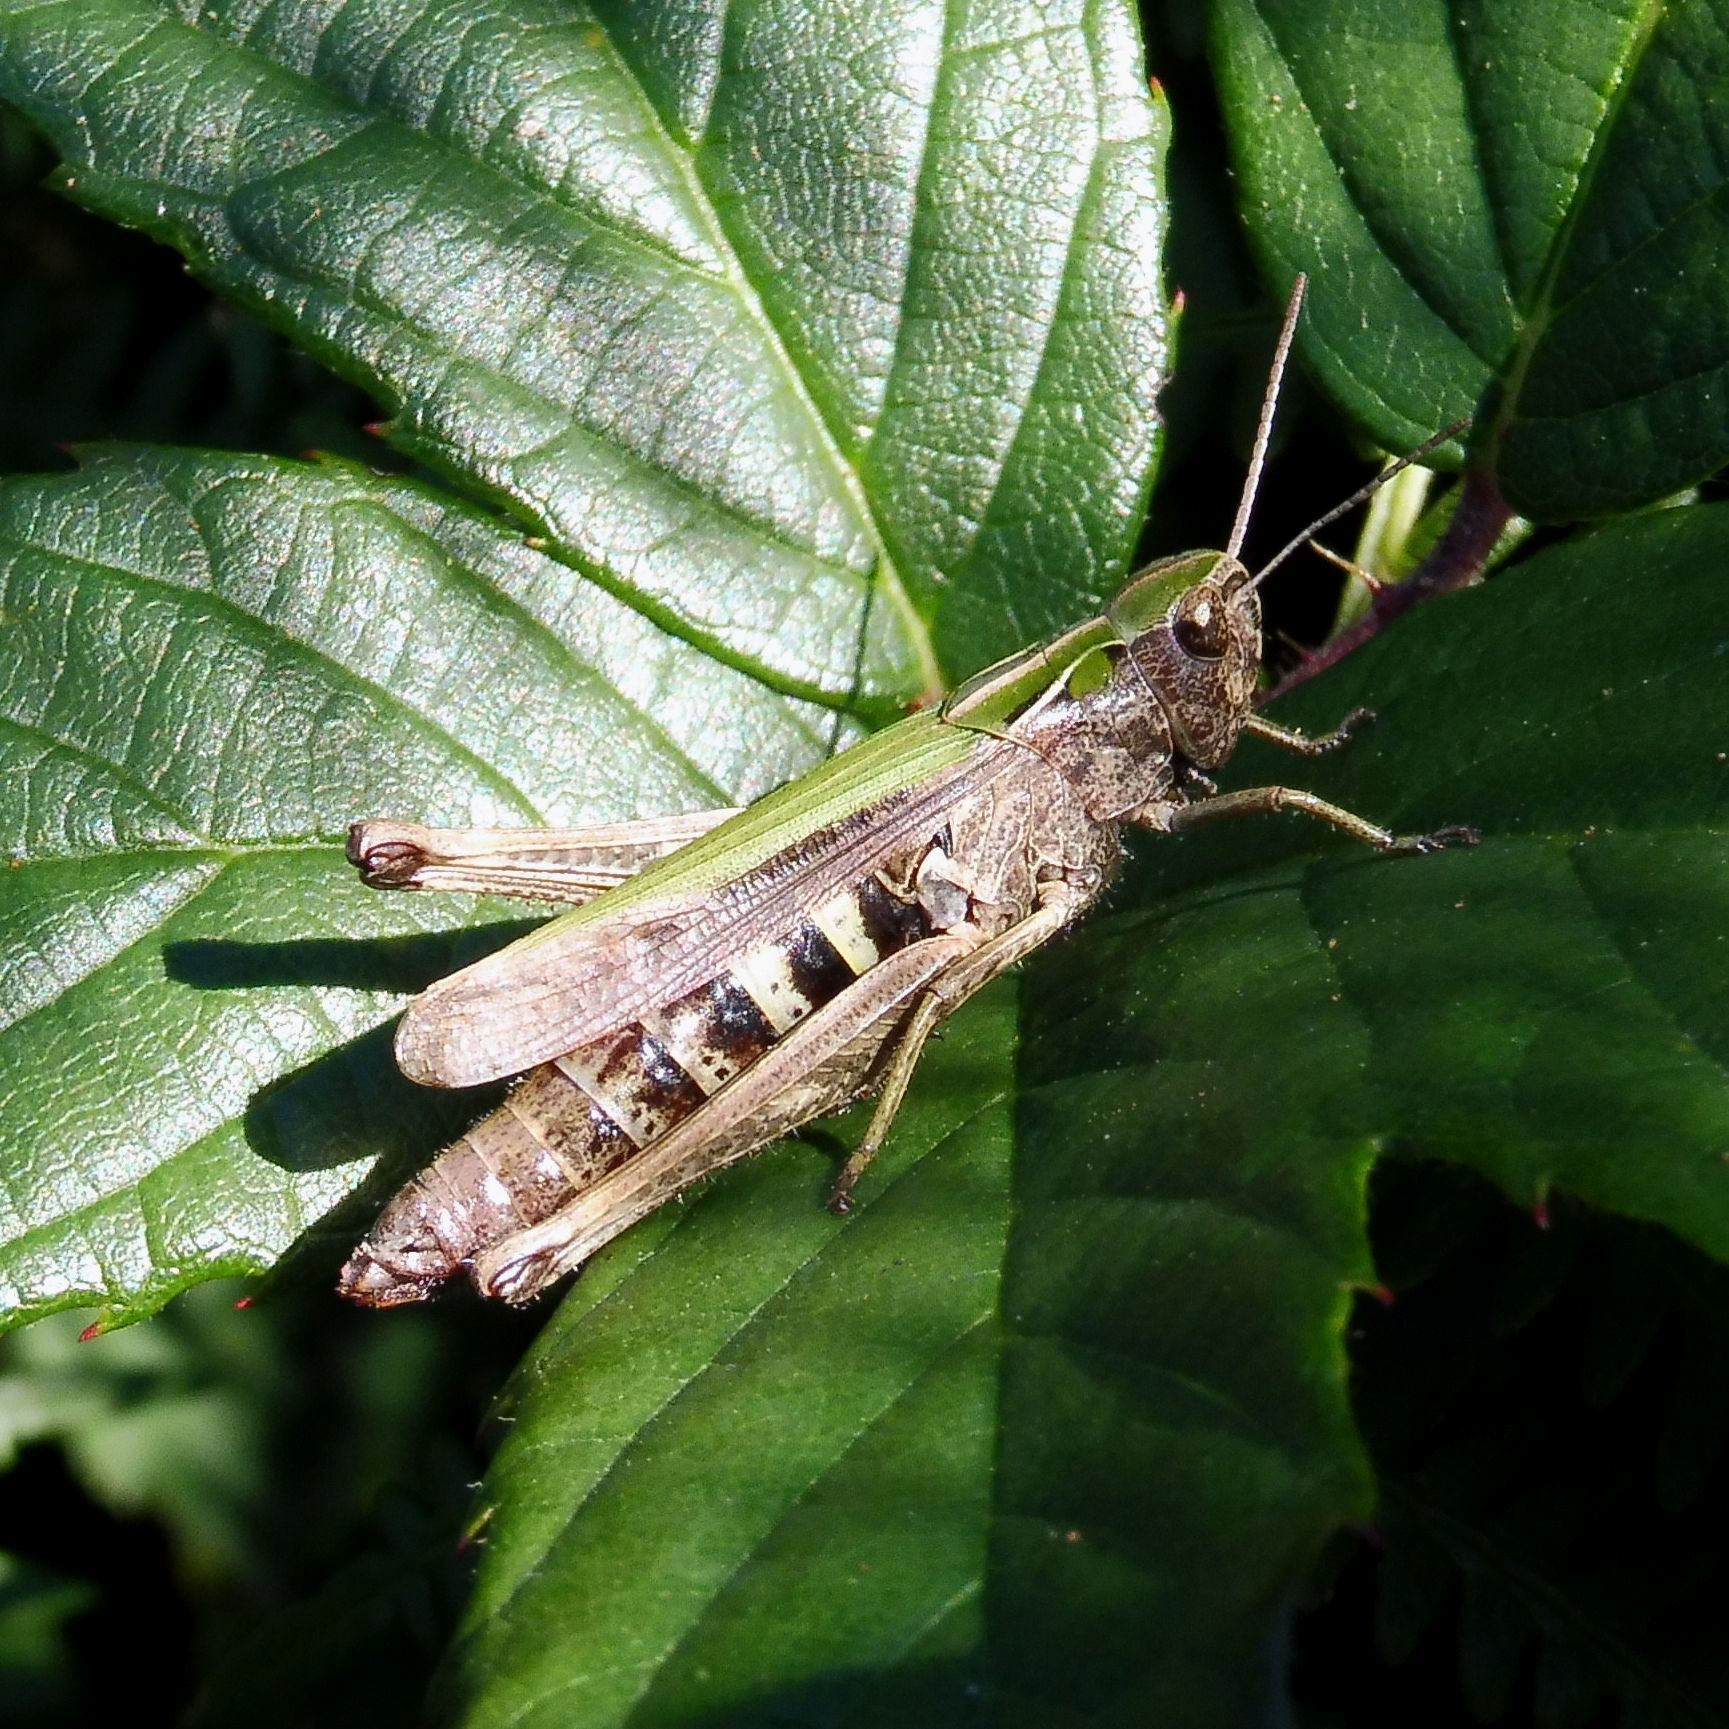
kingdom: Animalia
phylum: Arthropoda
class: Insecta
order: Orthoptera
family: Acrididae
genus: Omocestus
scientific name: Omocestus viridulus
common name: Common green grasshopper
